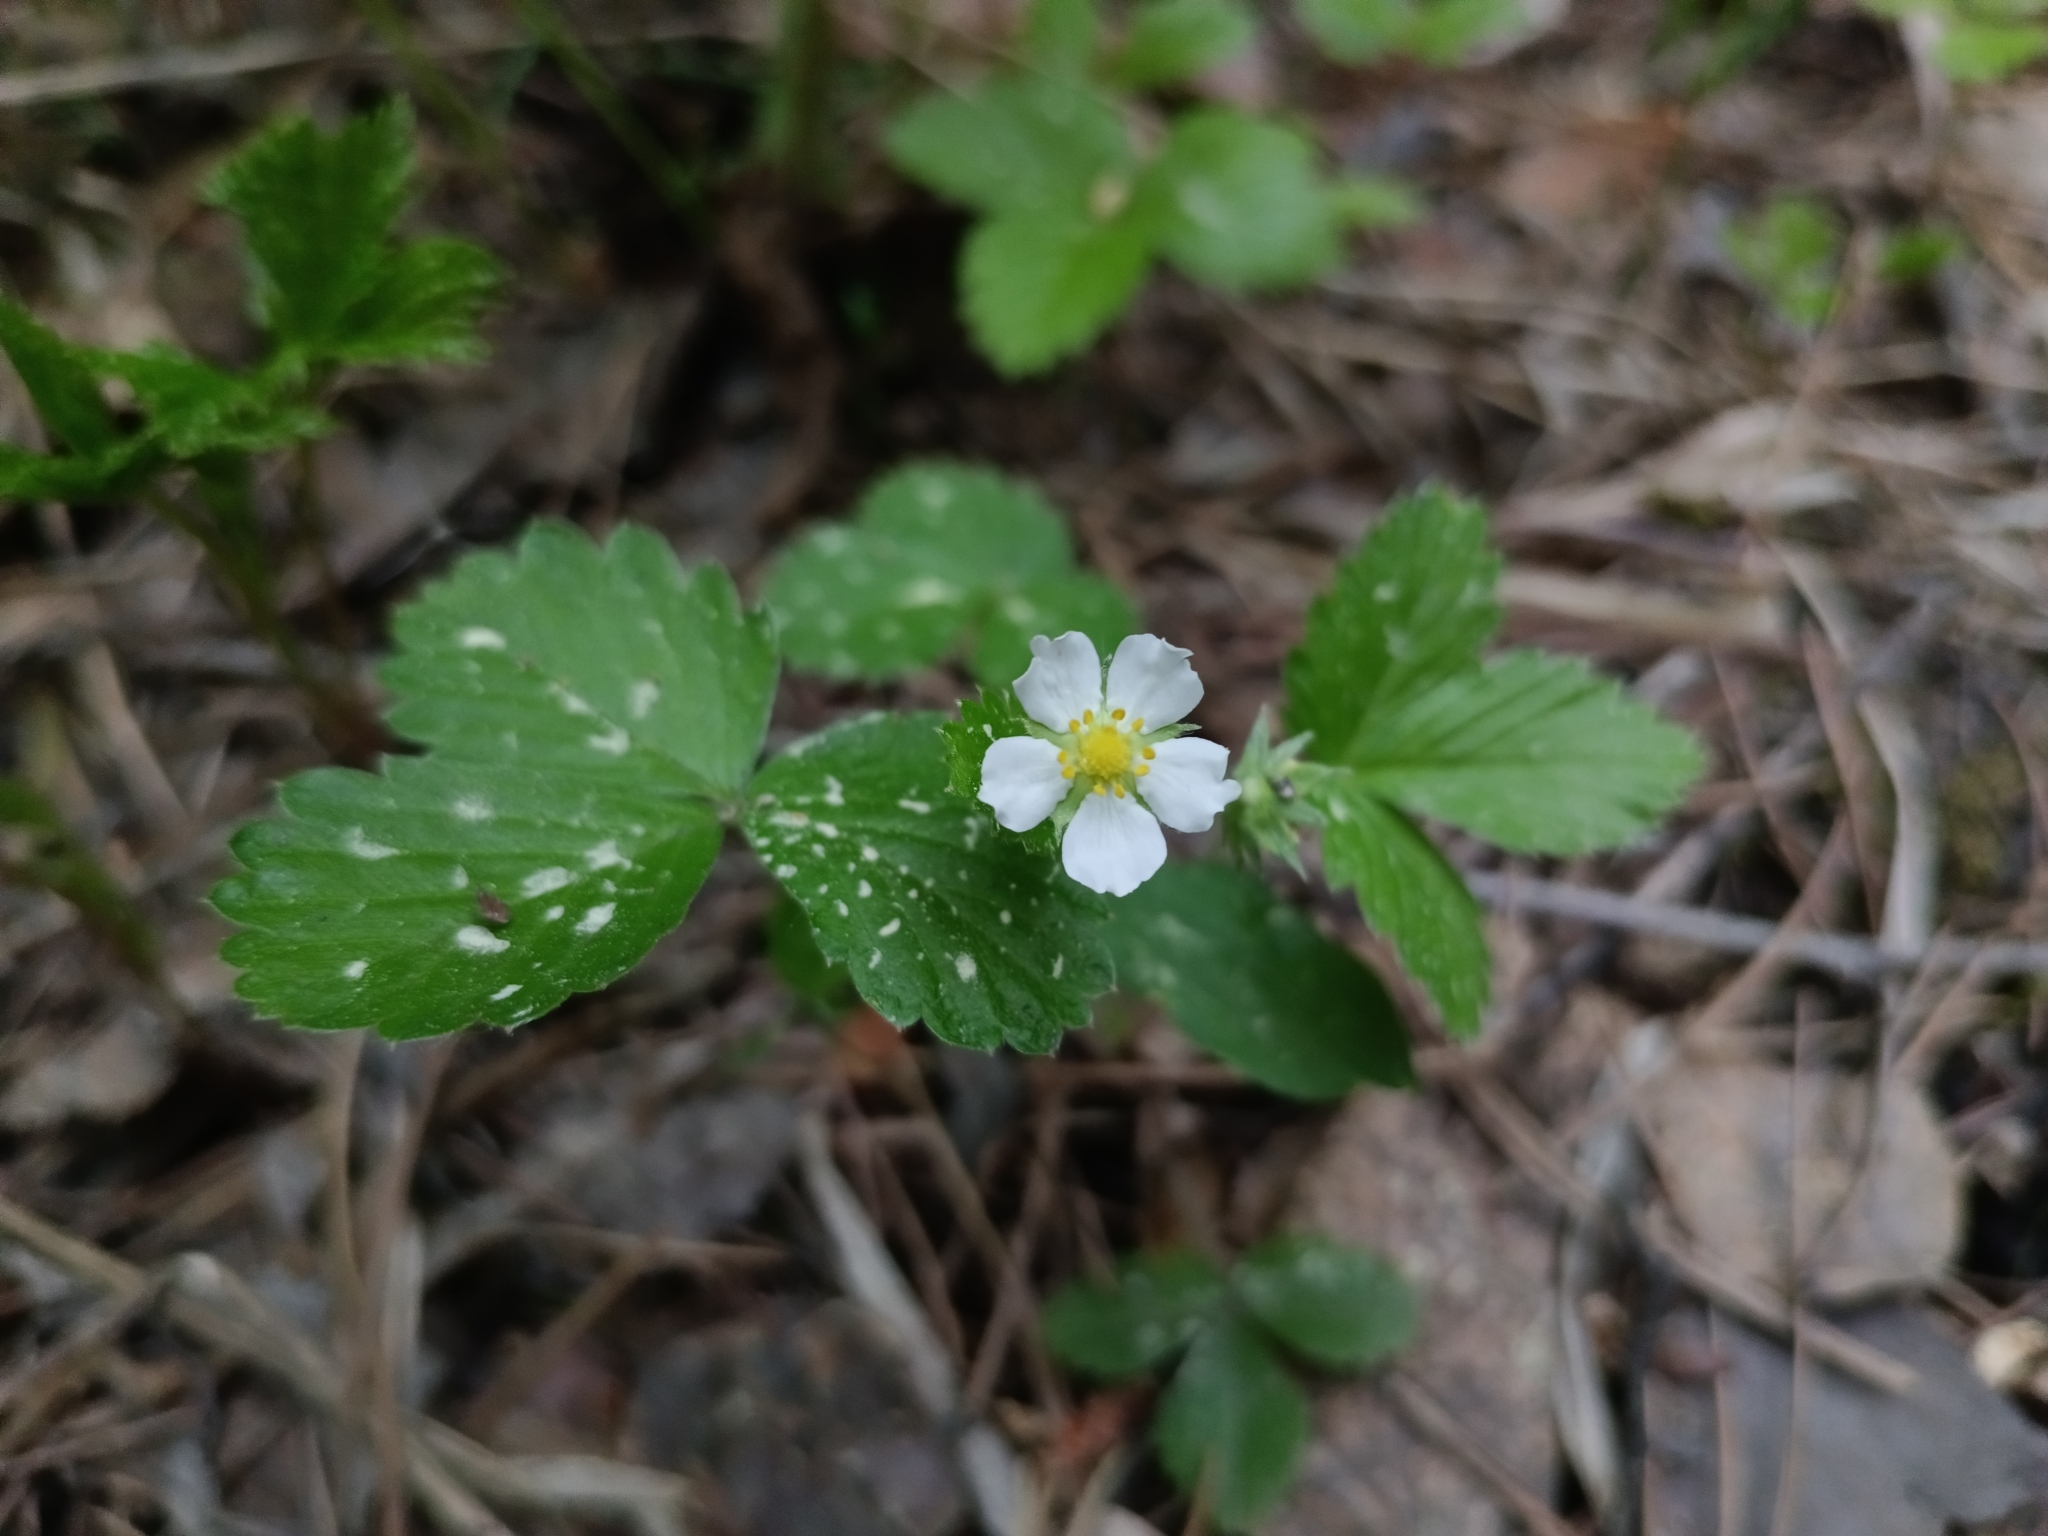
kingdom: Plantae
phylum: Tracheophyta
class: Magnoliopsida
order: Rosales
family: Rosaceae
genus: Fragaria
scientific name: Fragaria vesca
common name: Wild strawberry
